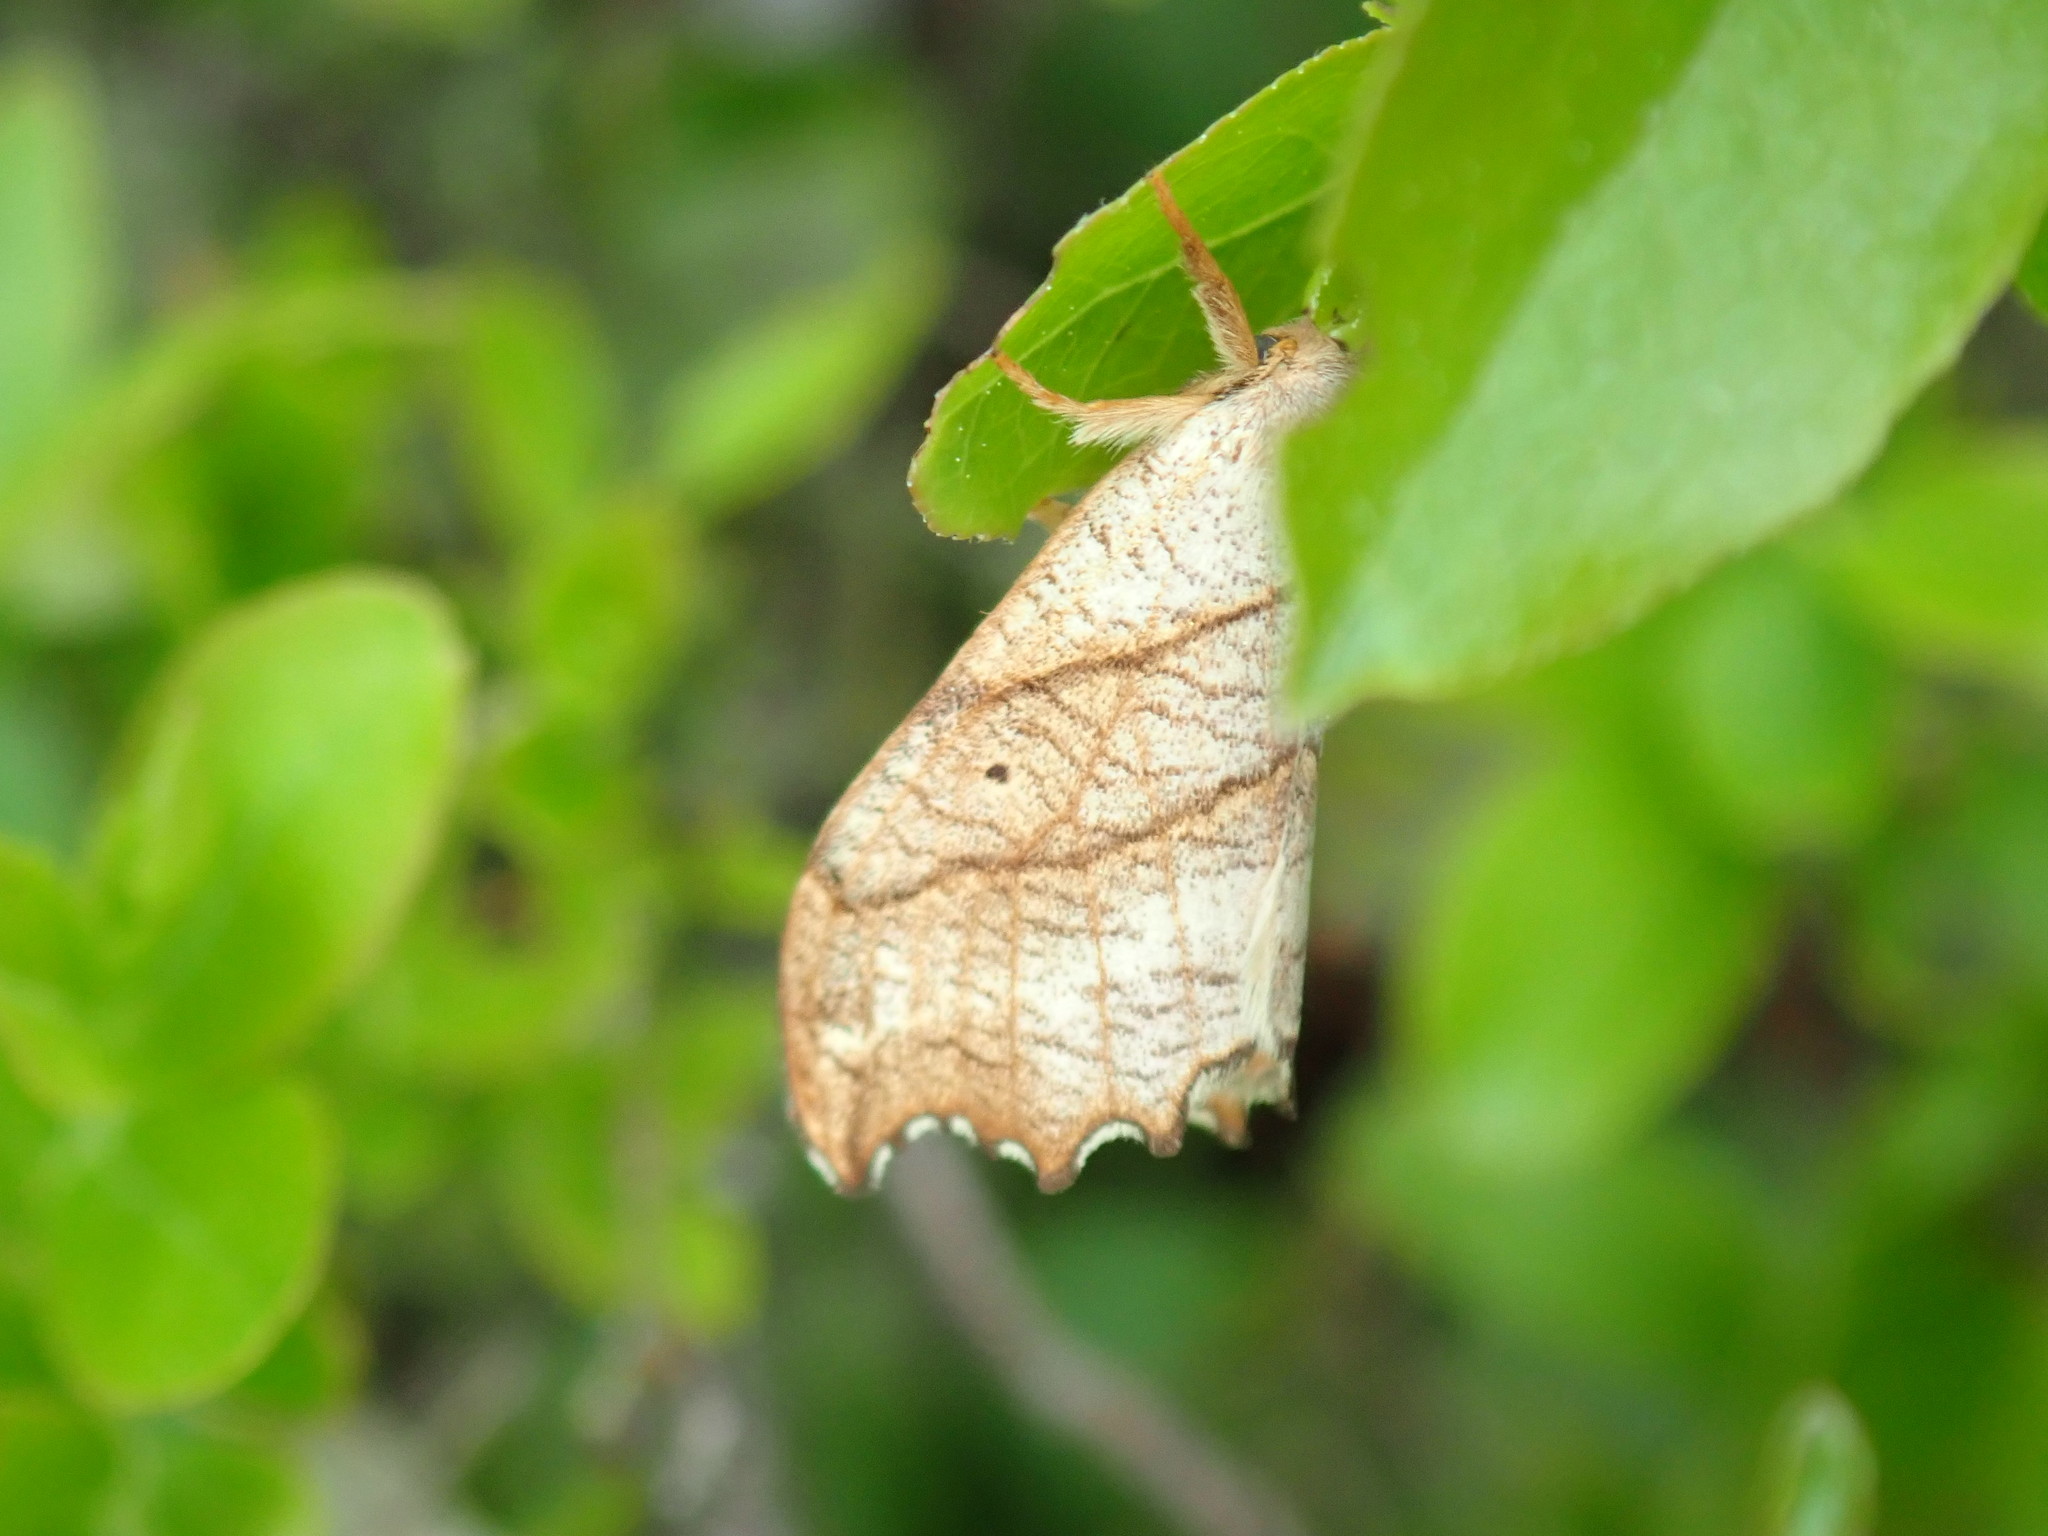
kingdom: Animalia
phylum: Arthropoda
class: Insecta
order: Lepidoptera
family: Drepanidae
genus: Falcaria
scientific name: Falcaria bilineata
